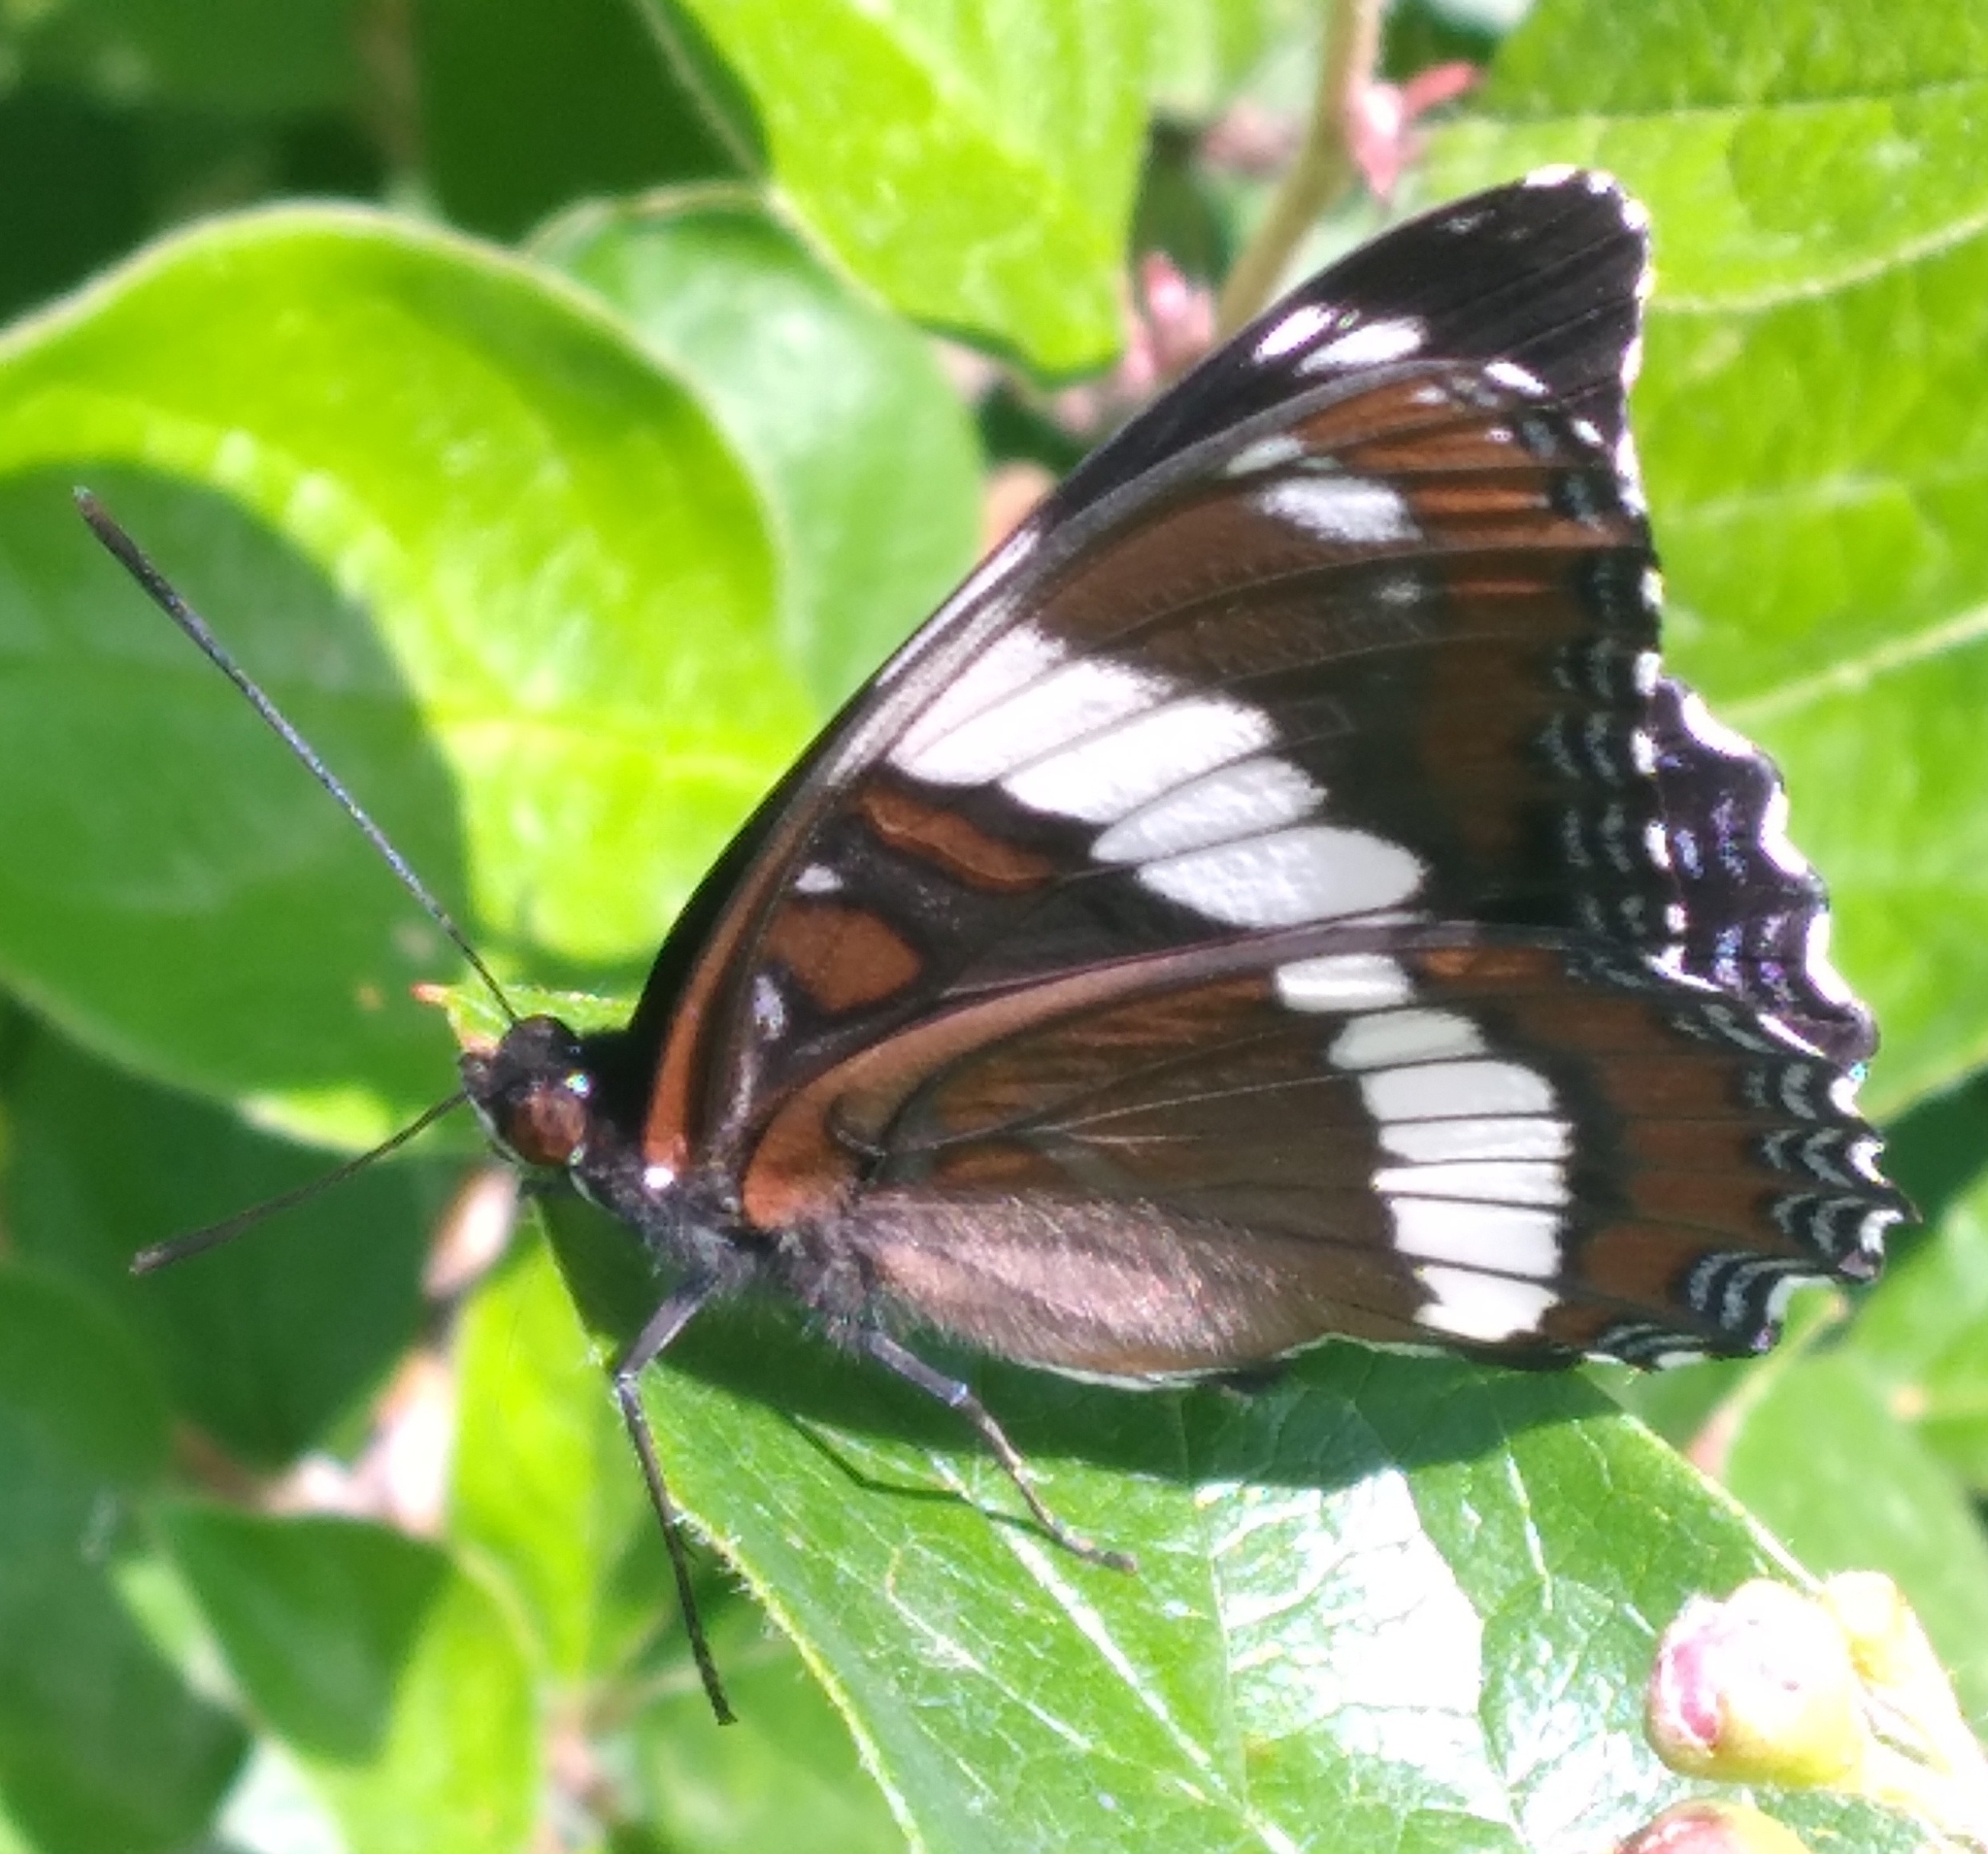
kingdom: Animalia
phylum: Arthropoda
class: Insecta
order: Lepidoptera
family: Nymphalidae
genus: Limenitis
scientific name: Limenitis arthemis
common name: Red-spotted admiral
